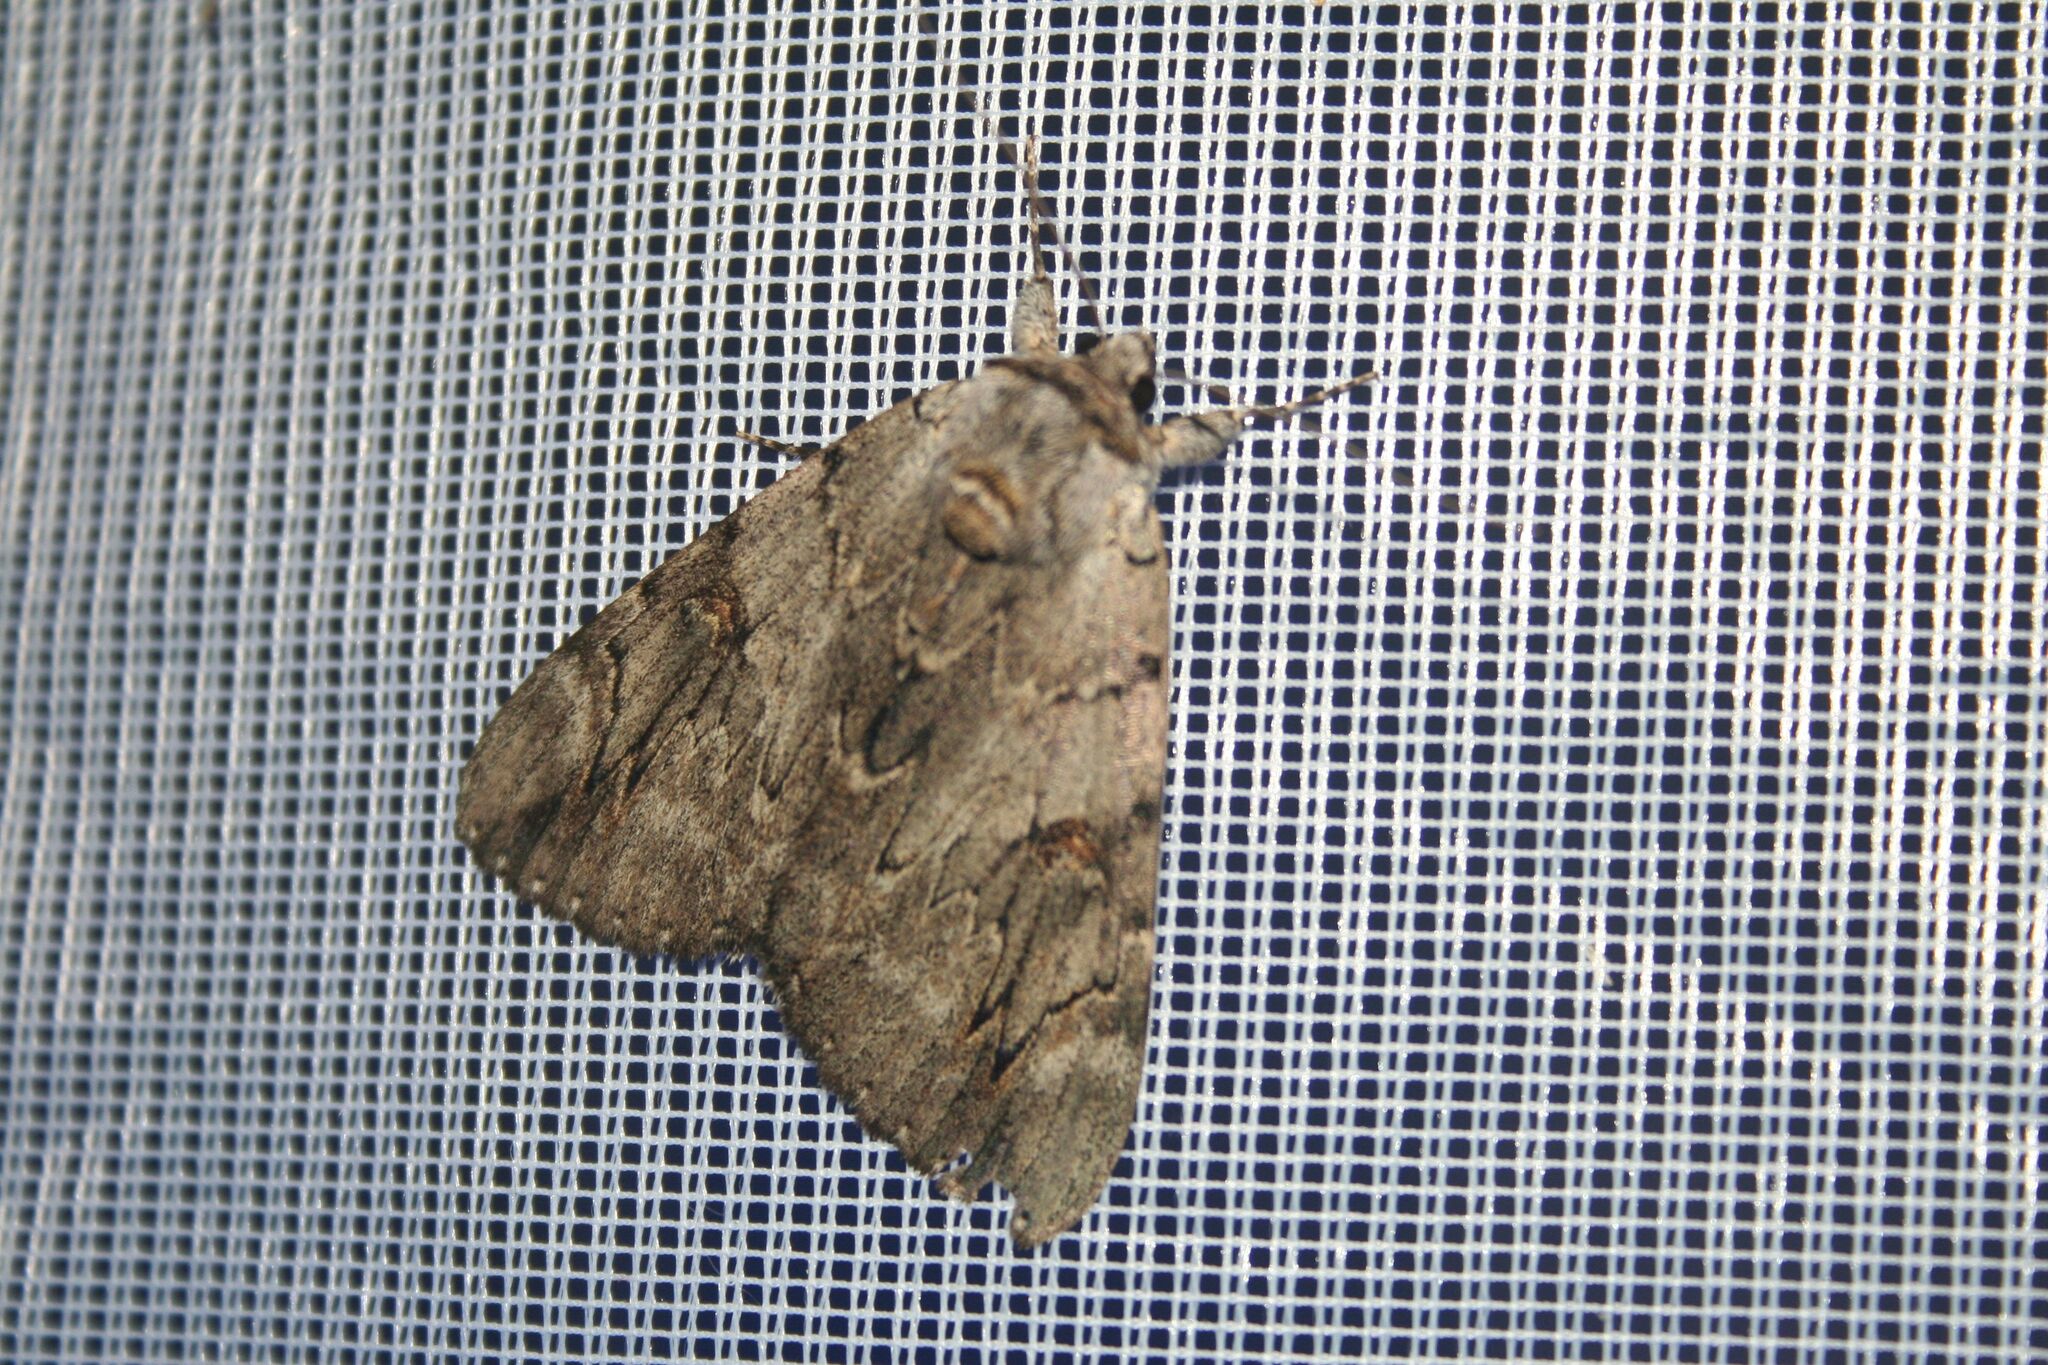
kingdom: Animalia
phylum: Arthropoda
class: Insecta
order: Lepidoptera
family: Erebidae
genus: Catocala
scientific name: Catocala electa
